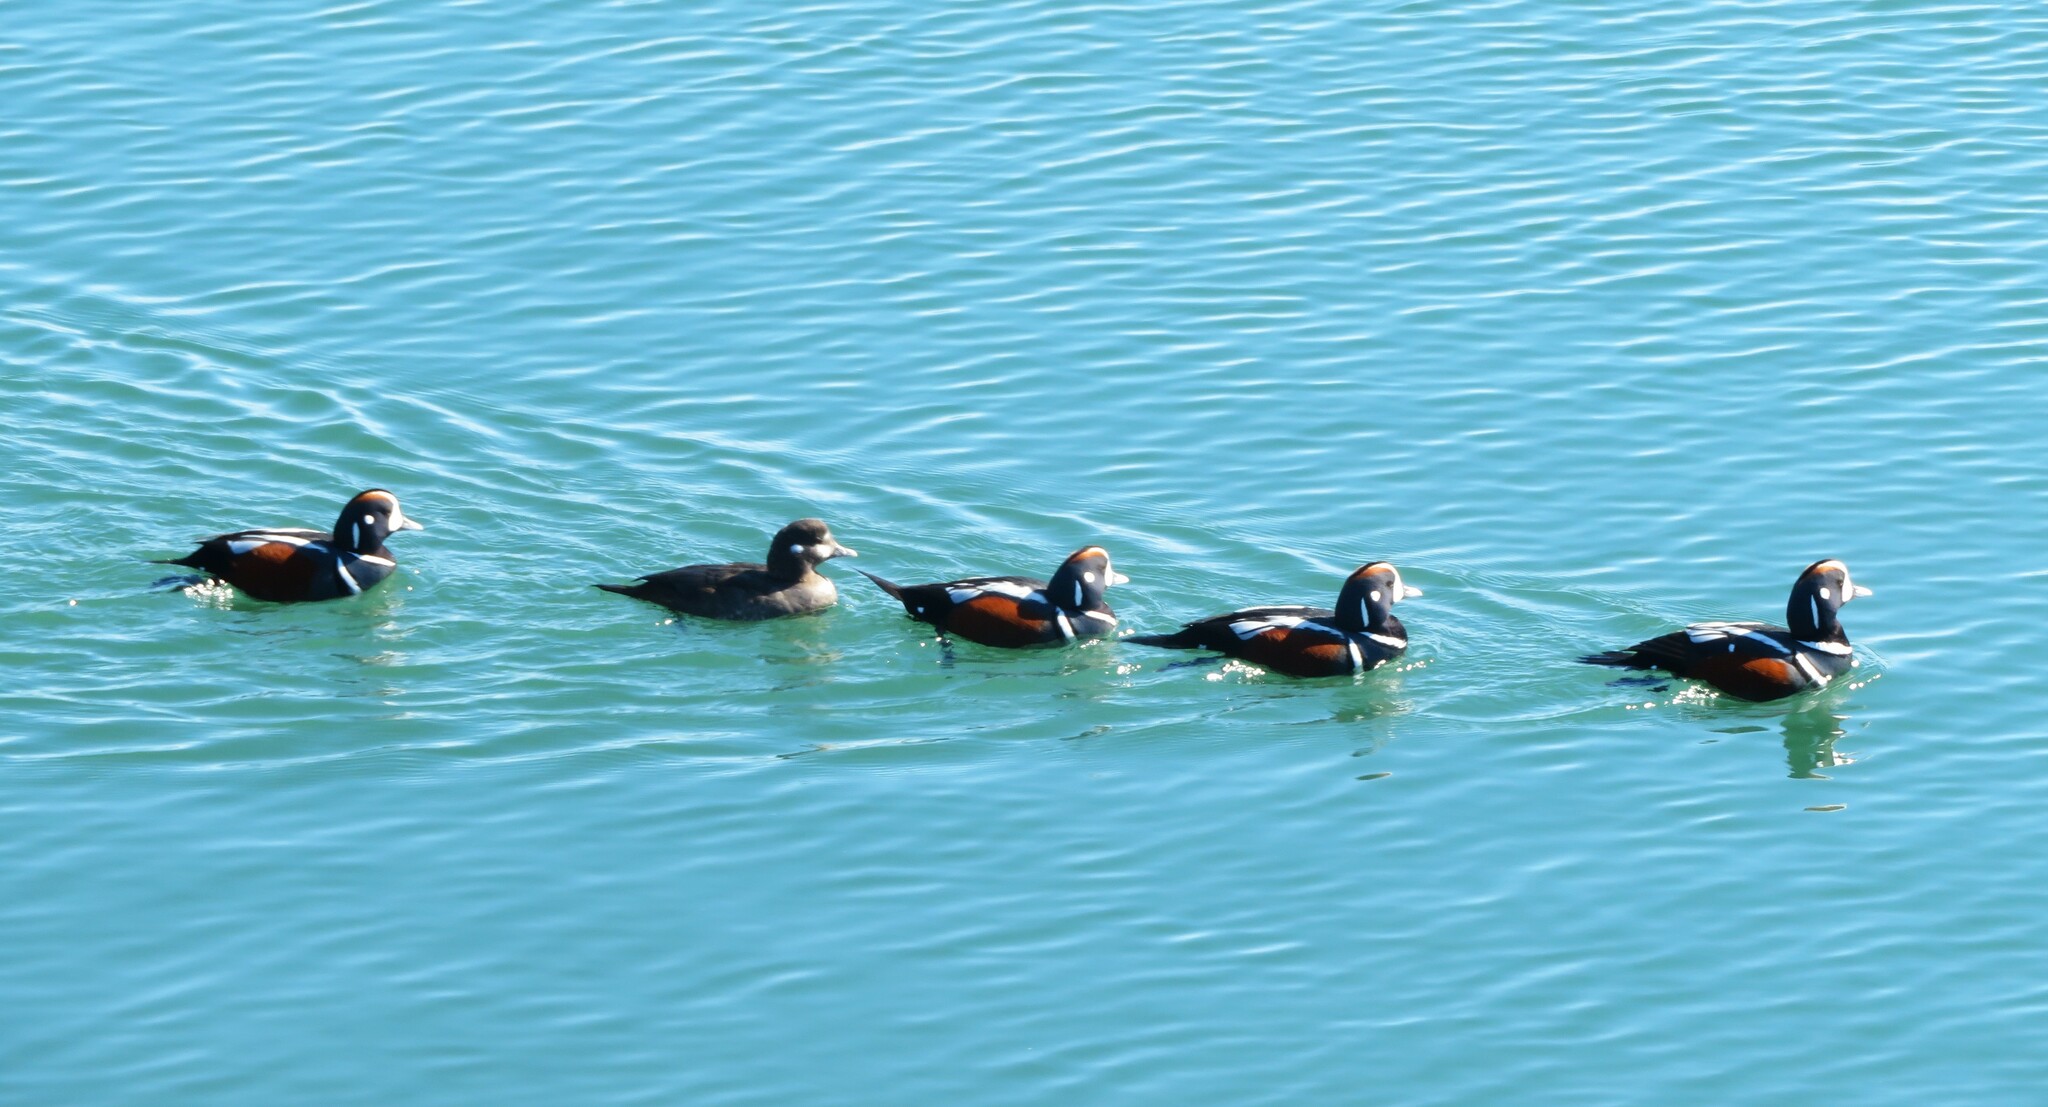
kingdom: Animalia
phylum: Chordata
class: Aves
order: Anseriformes
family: Anatidae
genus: Histrionicus
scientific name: Histrionicus histrionicus
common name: Harlequin duck
